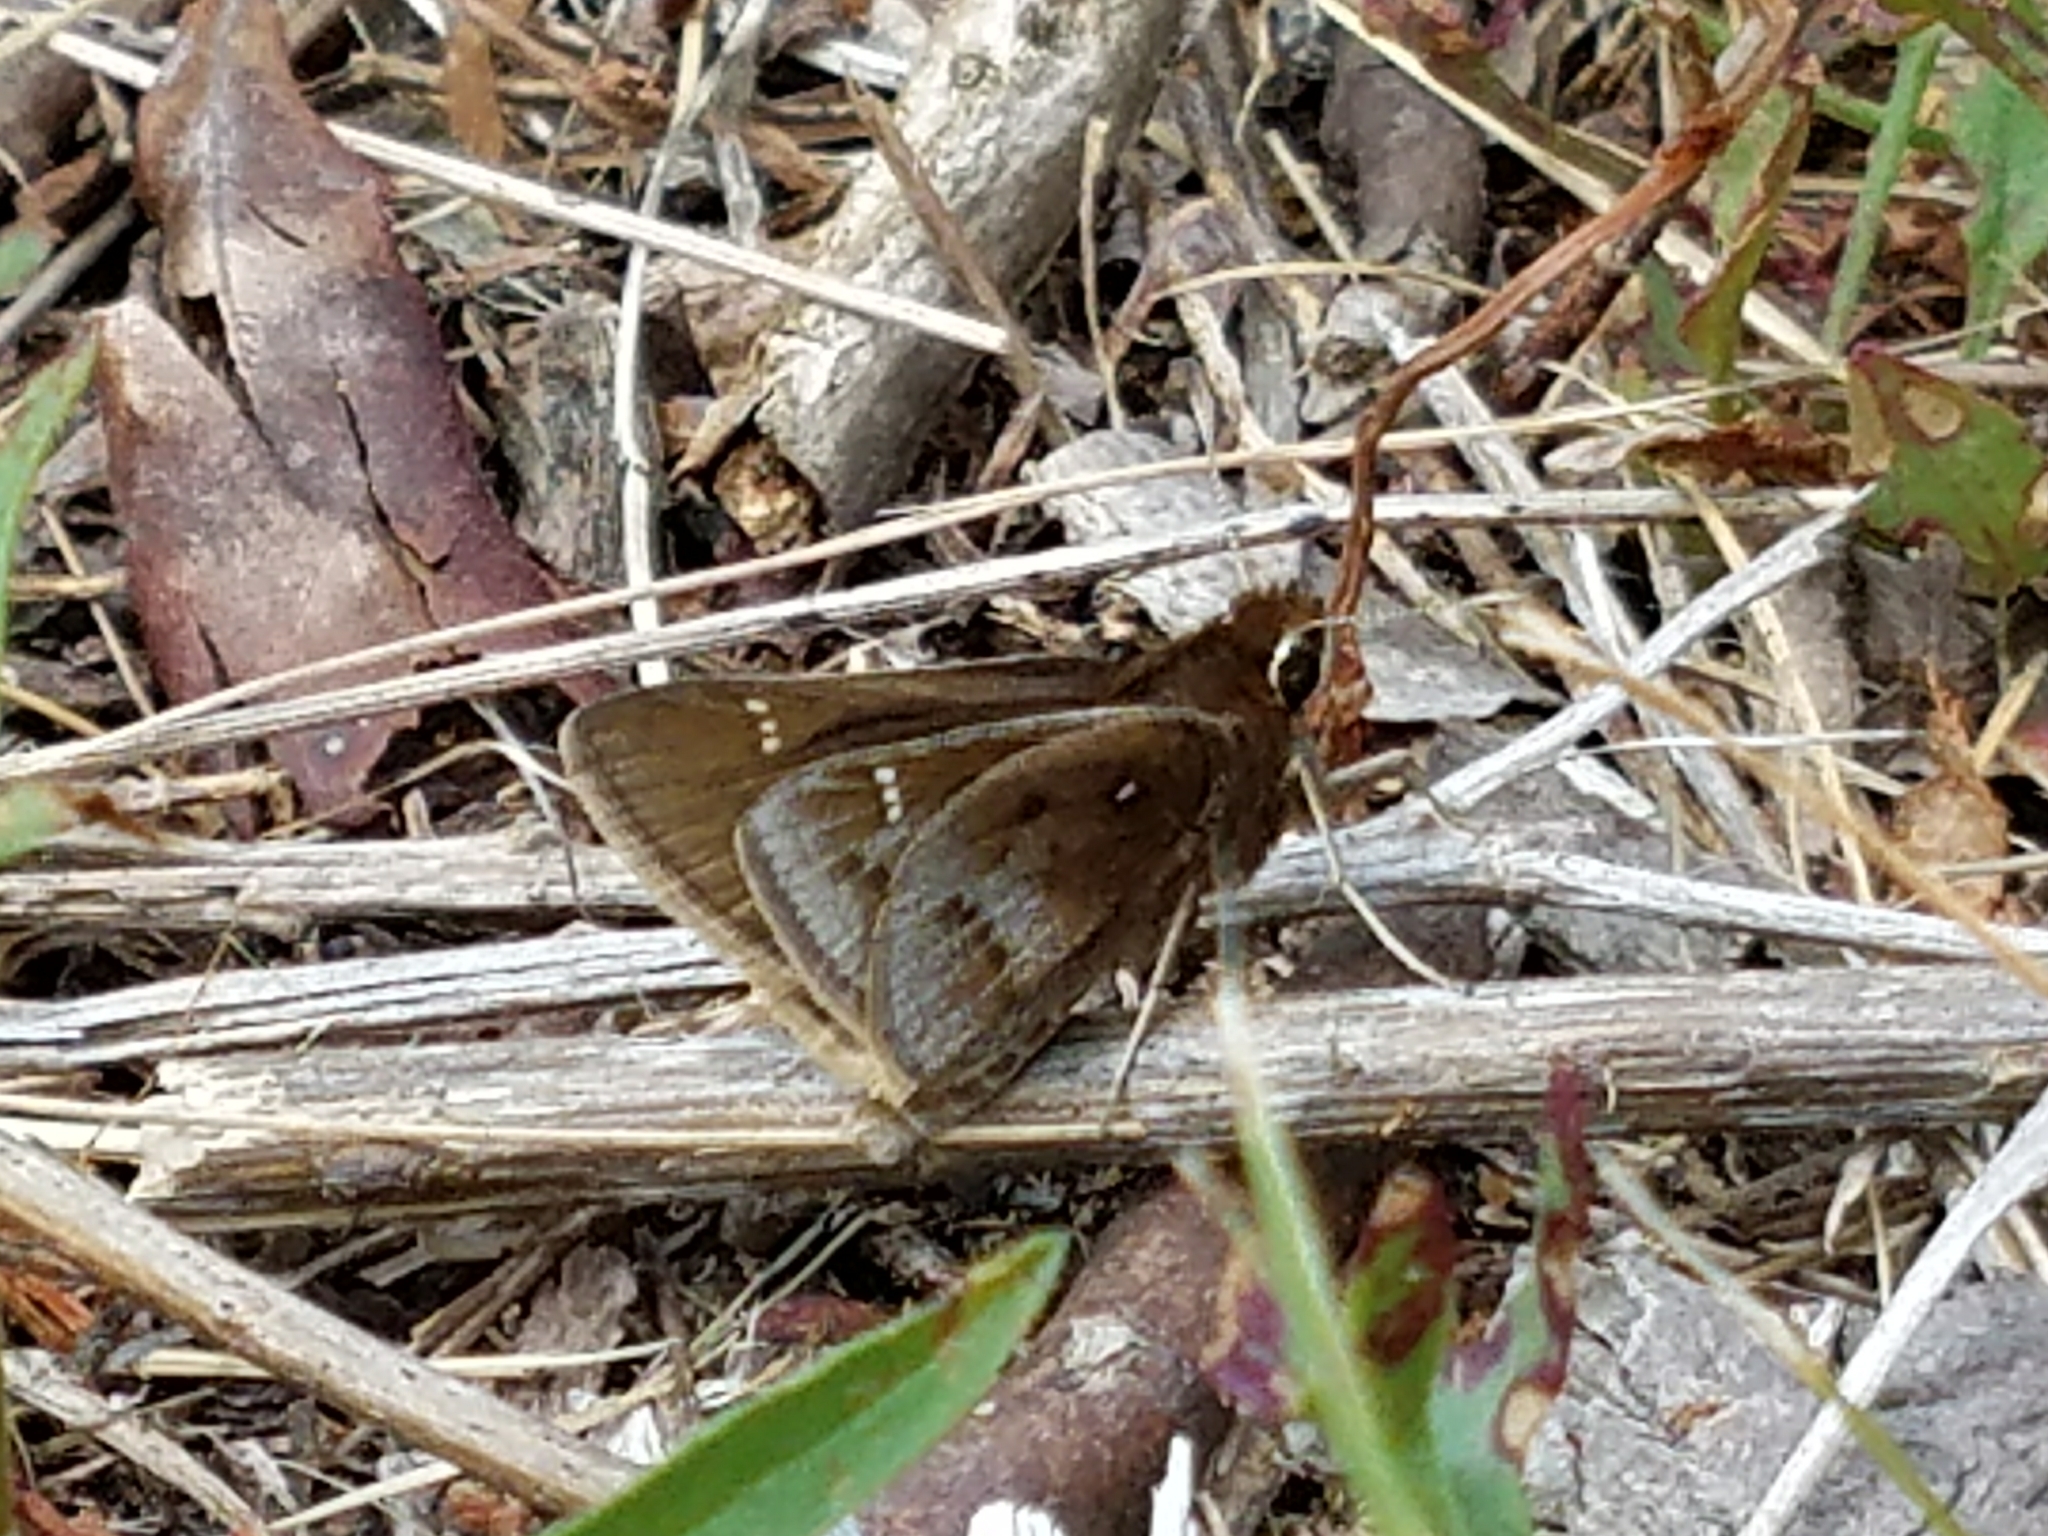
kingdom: Animalia
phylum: Arthropoda
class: Insecta
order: Lepidoptera
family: Hesperiidae
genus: Atrytonopsis
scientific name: Atrytonopsis hianna
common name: Dusted skipper
